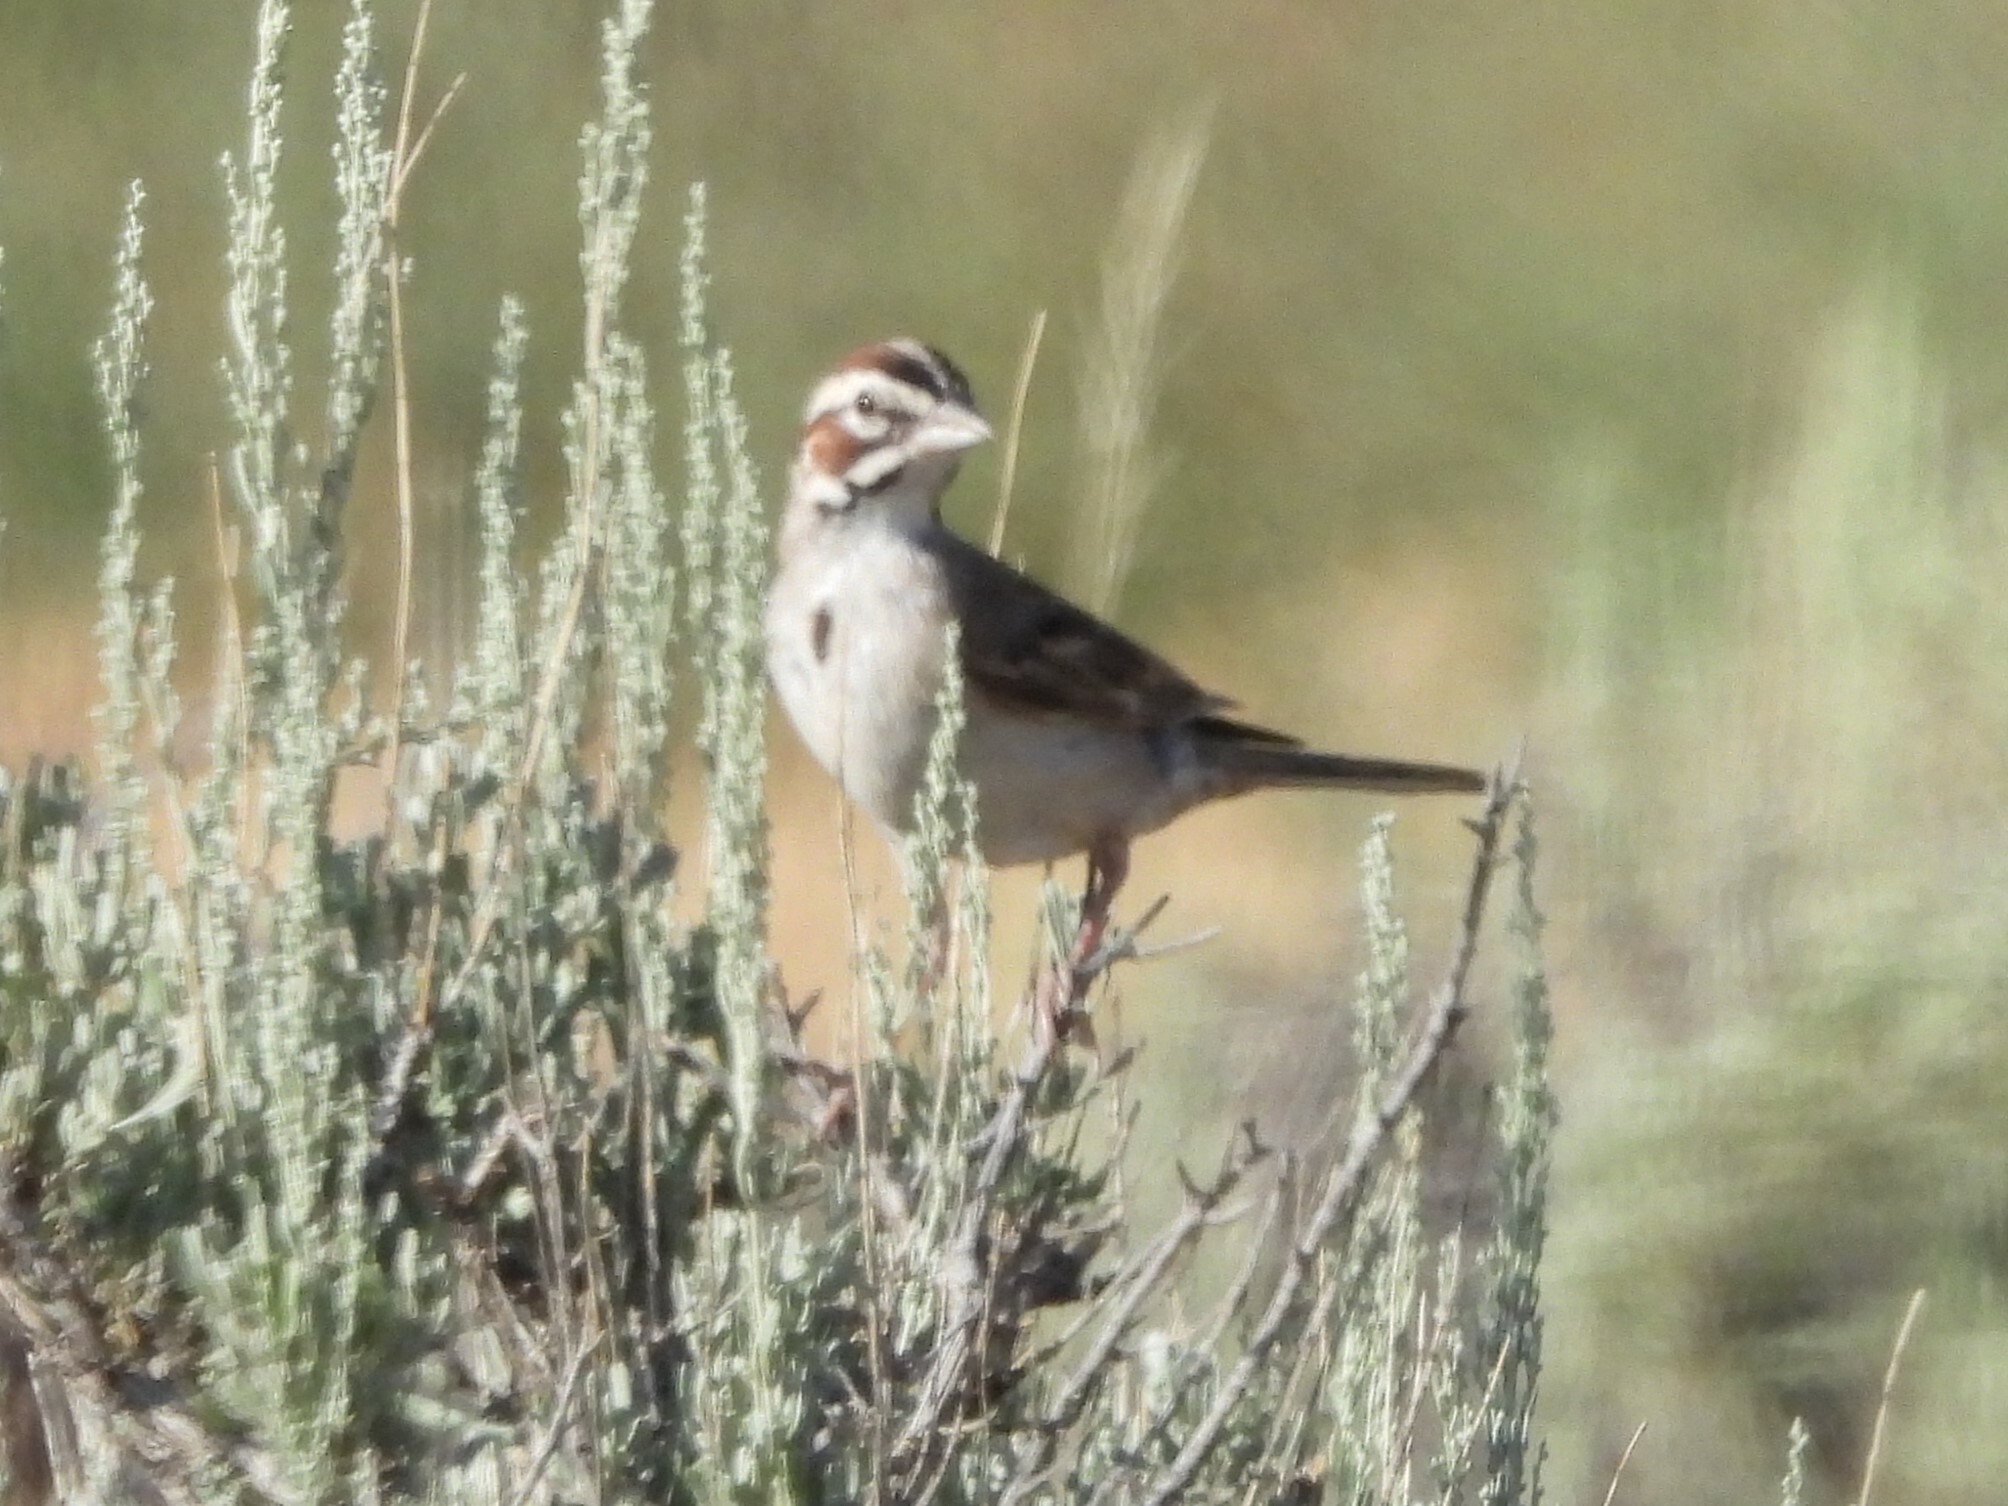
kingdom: Animalia
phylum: Chordata
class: Aves
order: Passeriformes
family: Passerellidae
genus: Chondestes
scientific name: Chondestes grammacus
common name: Lark sparrow
